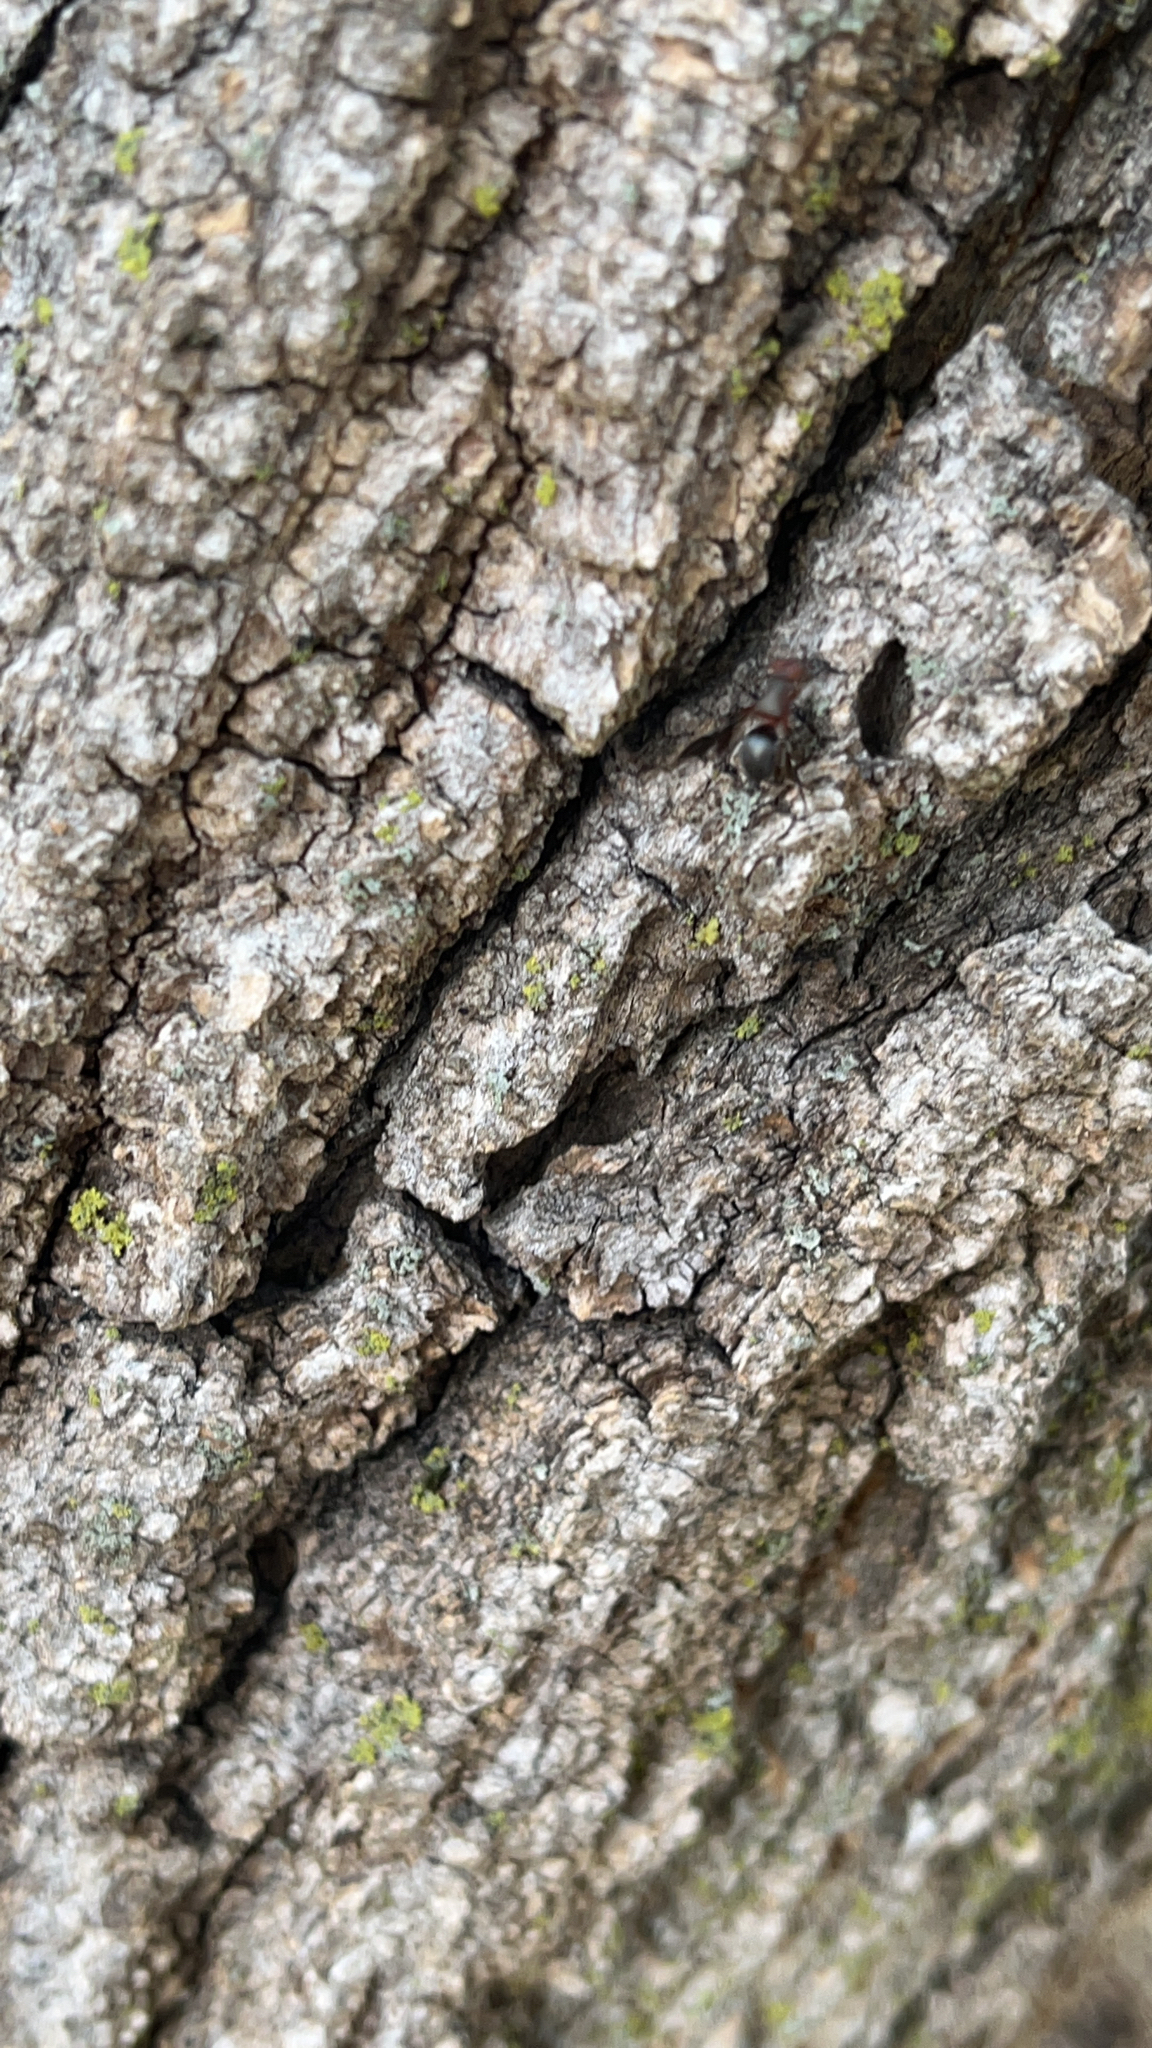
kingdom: Animalia
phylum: Arthropoda
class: Insecta
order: Diptera
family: Ulidiidae
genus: Delphinia
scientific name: Delphinia picta
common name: Common picture-winged fly
